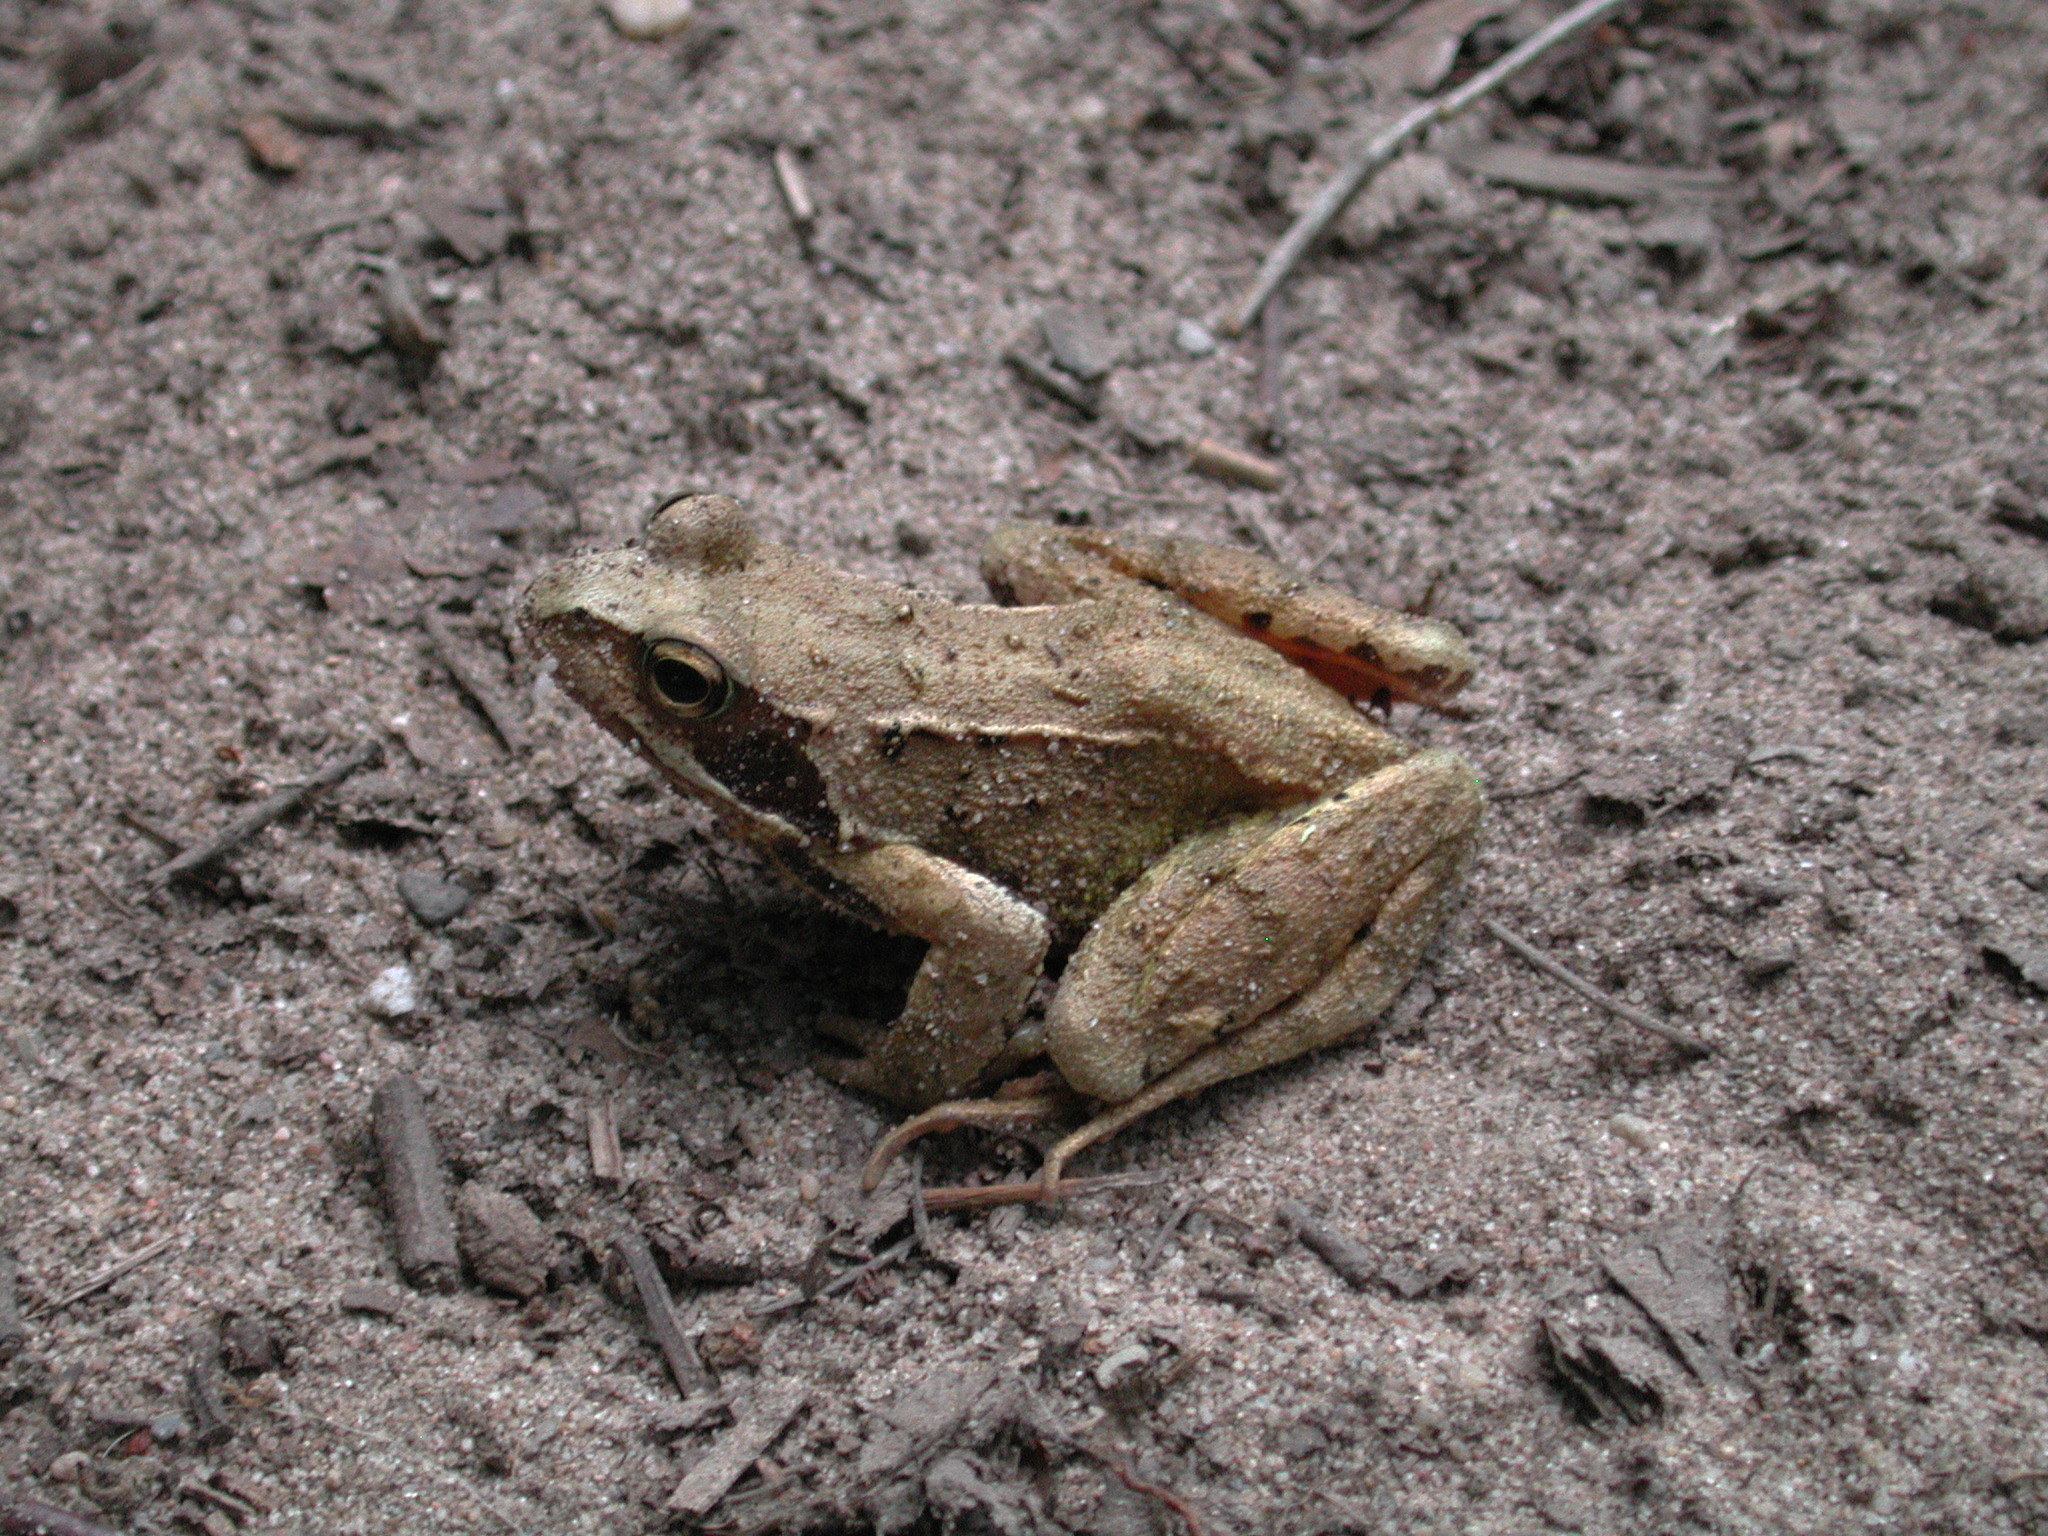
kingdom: Animalia
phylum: Chordata
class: Amphibia
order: Anura
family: Ranidae
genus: Rana
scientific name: Rana temporaria
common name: Common frog
